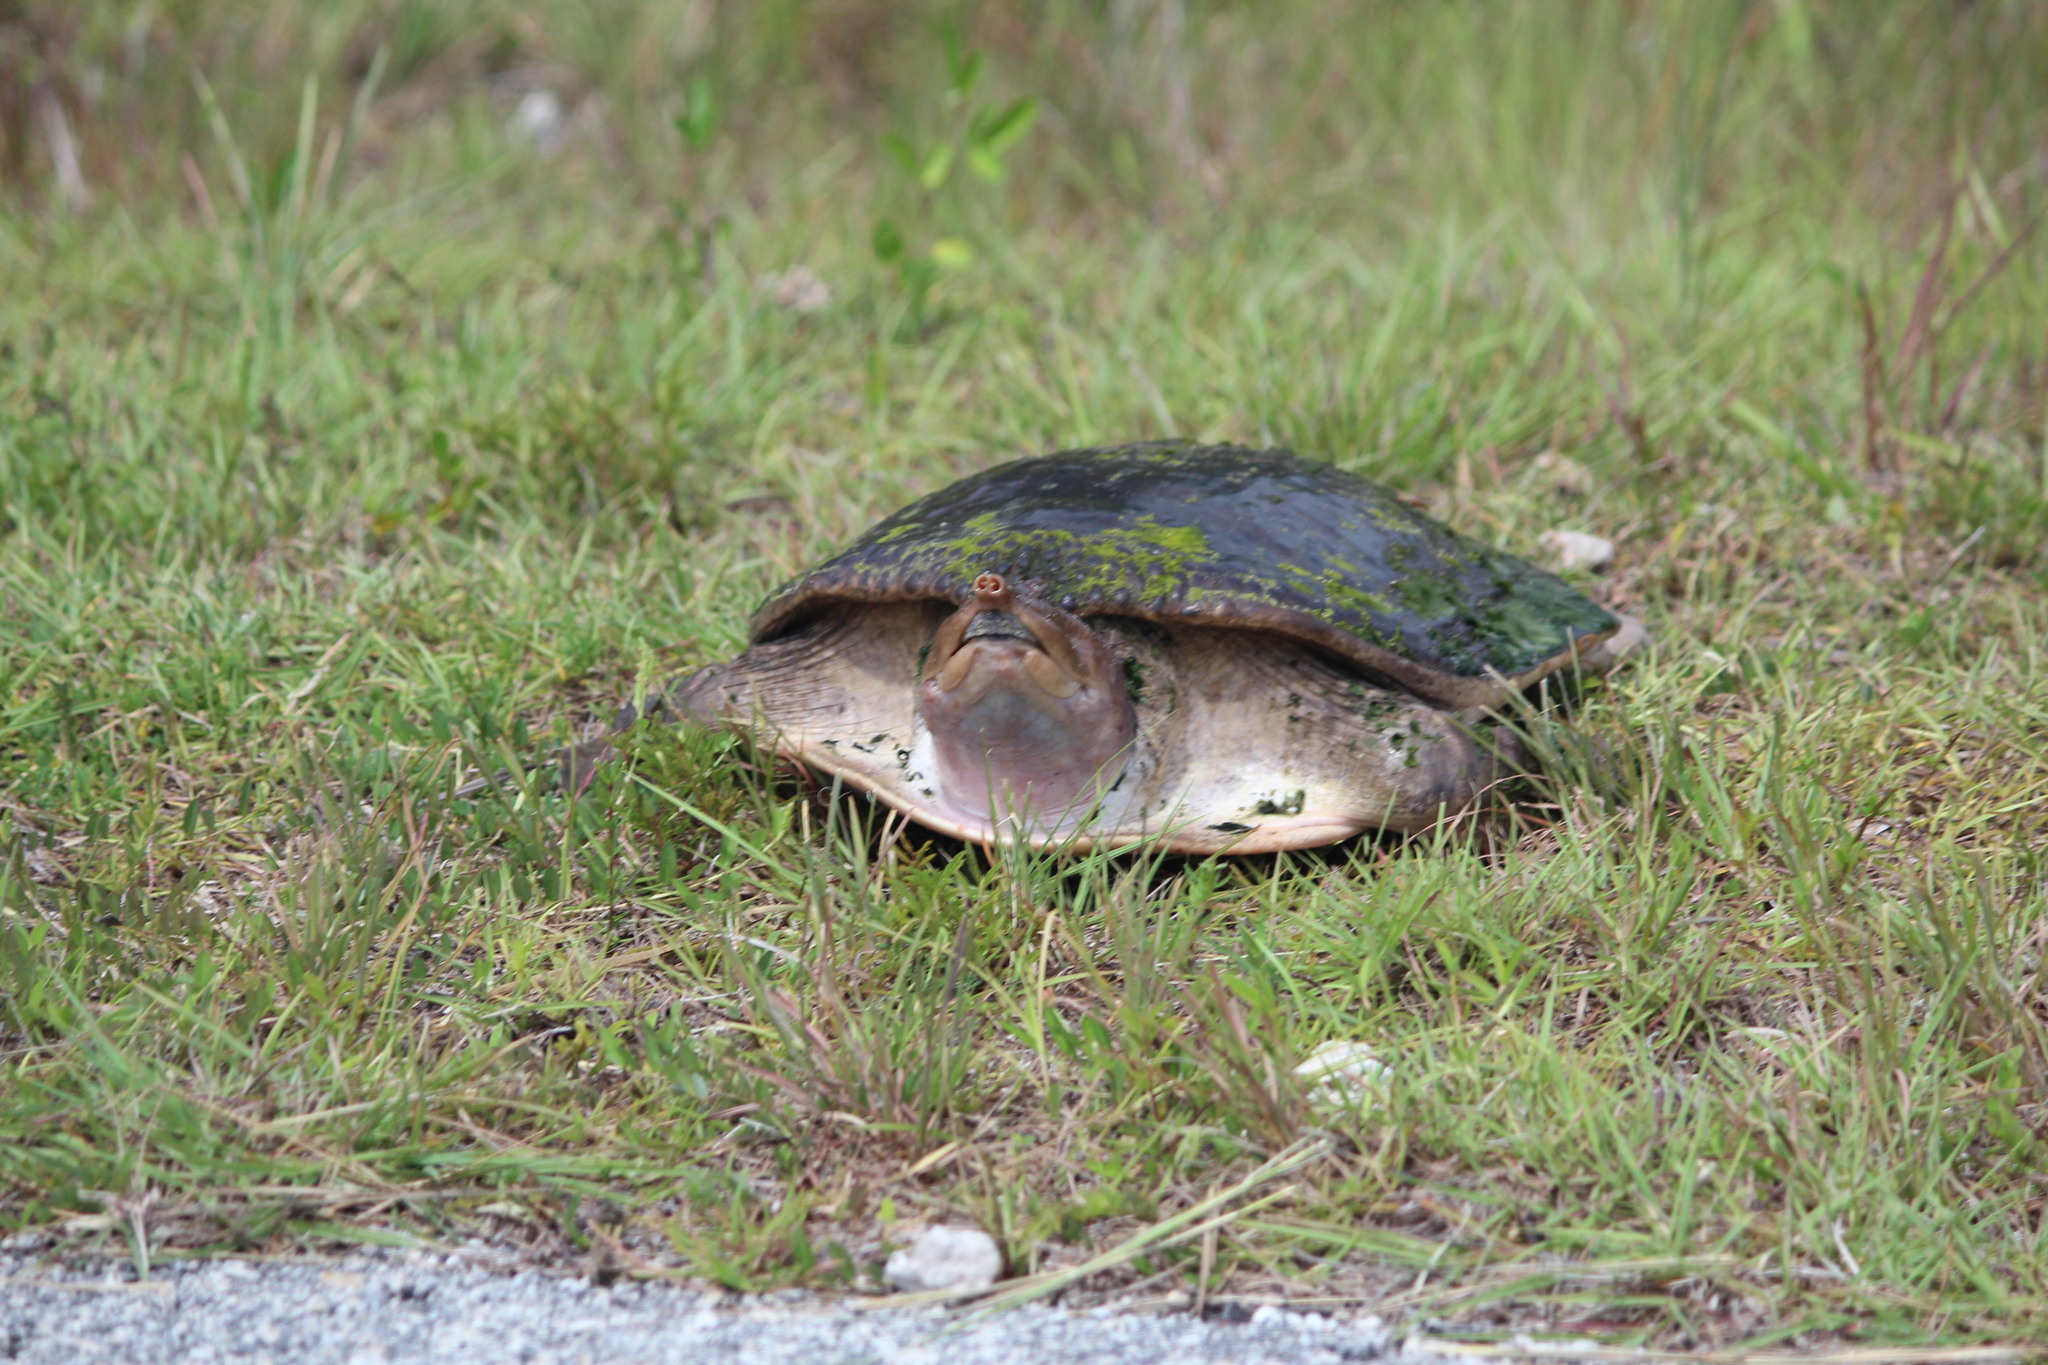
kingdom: Animalia
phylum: Chordata
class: Testudines
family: Trionychidae
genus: Apalone
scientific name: Apalone ferox
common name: Florida softshell turtle
